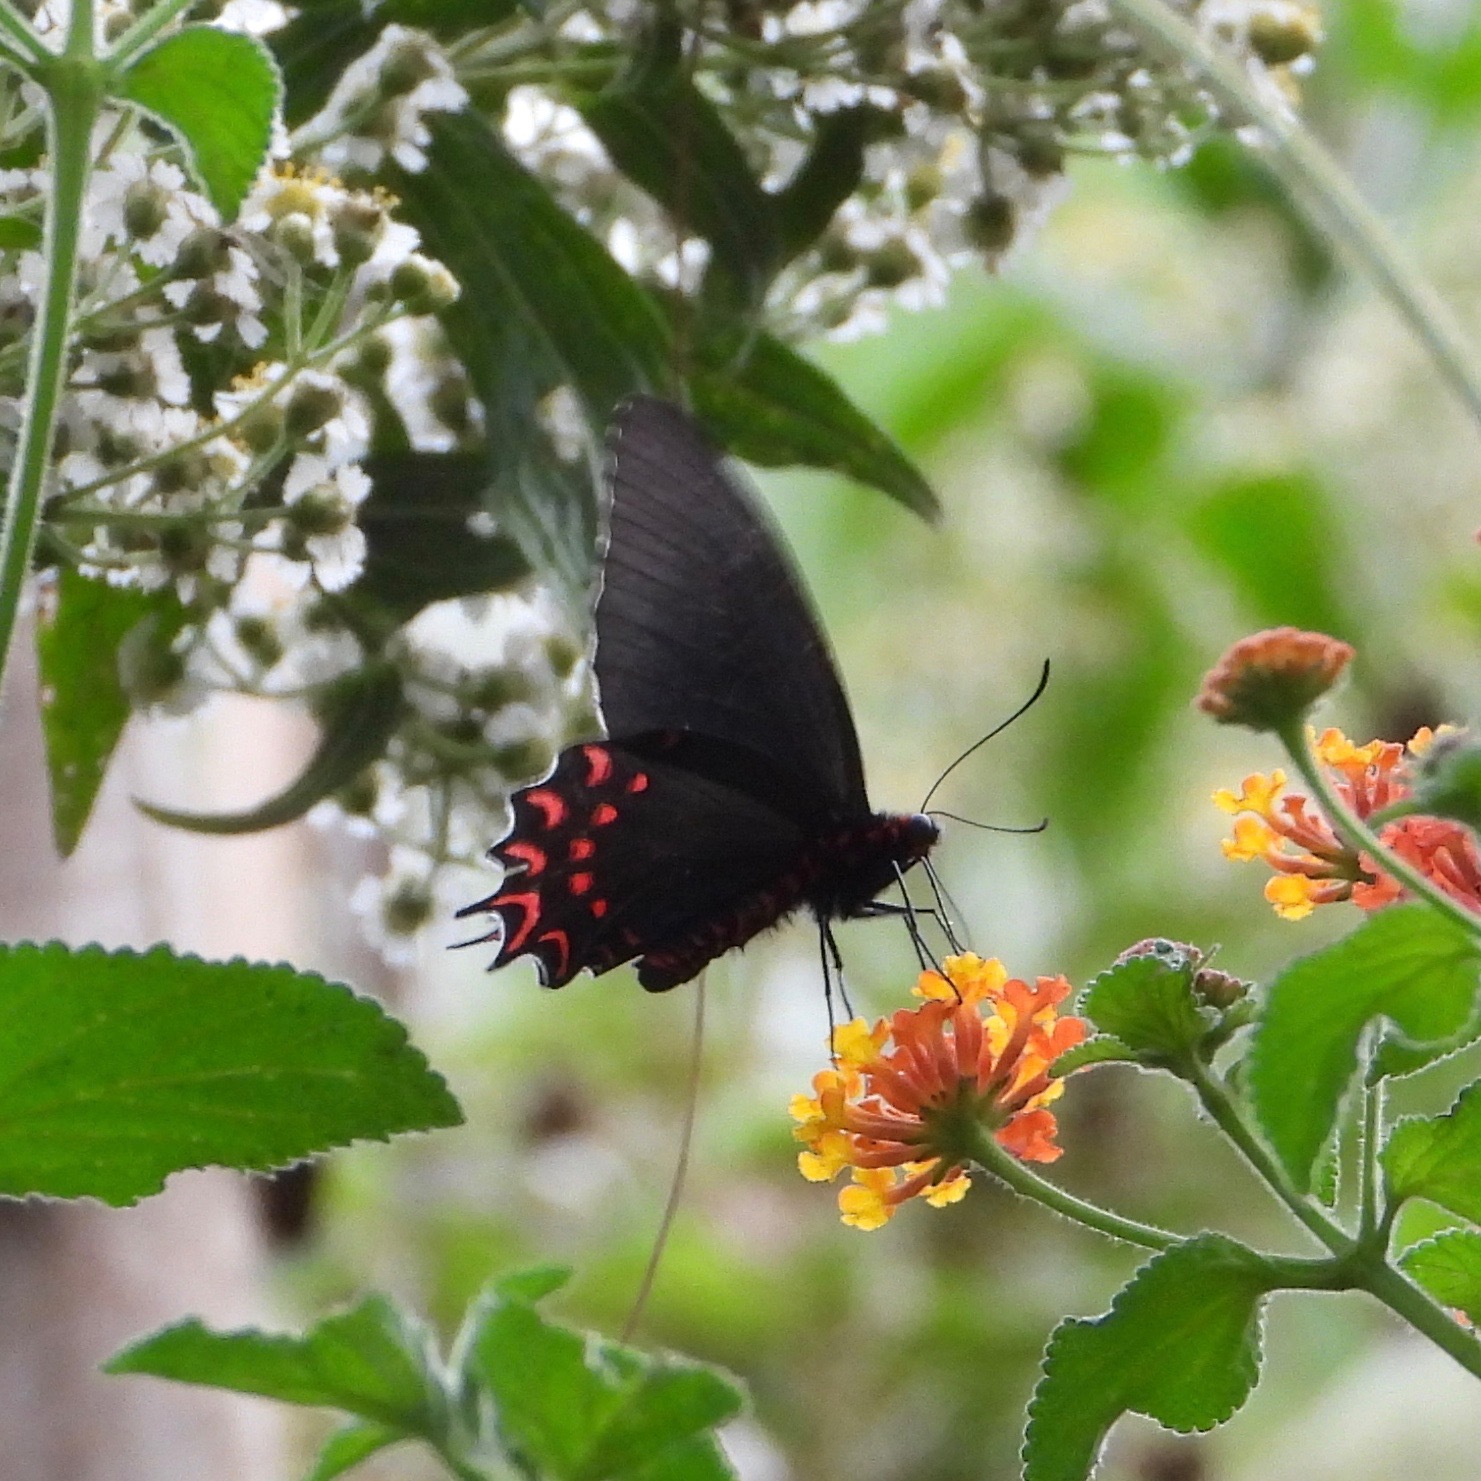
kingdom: Animalia
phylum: Arthropoda
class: Insecta
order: Lepidoptera
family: Papilionidae
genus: Parides
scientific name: Parides photinus
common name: Pink-spotted cattleheart
